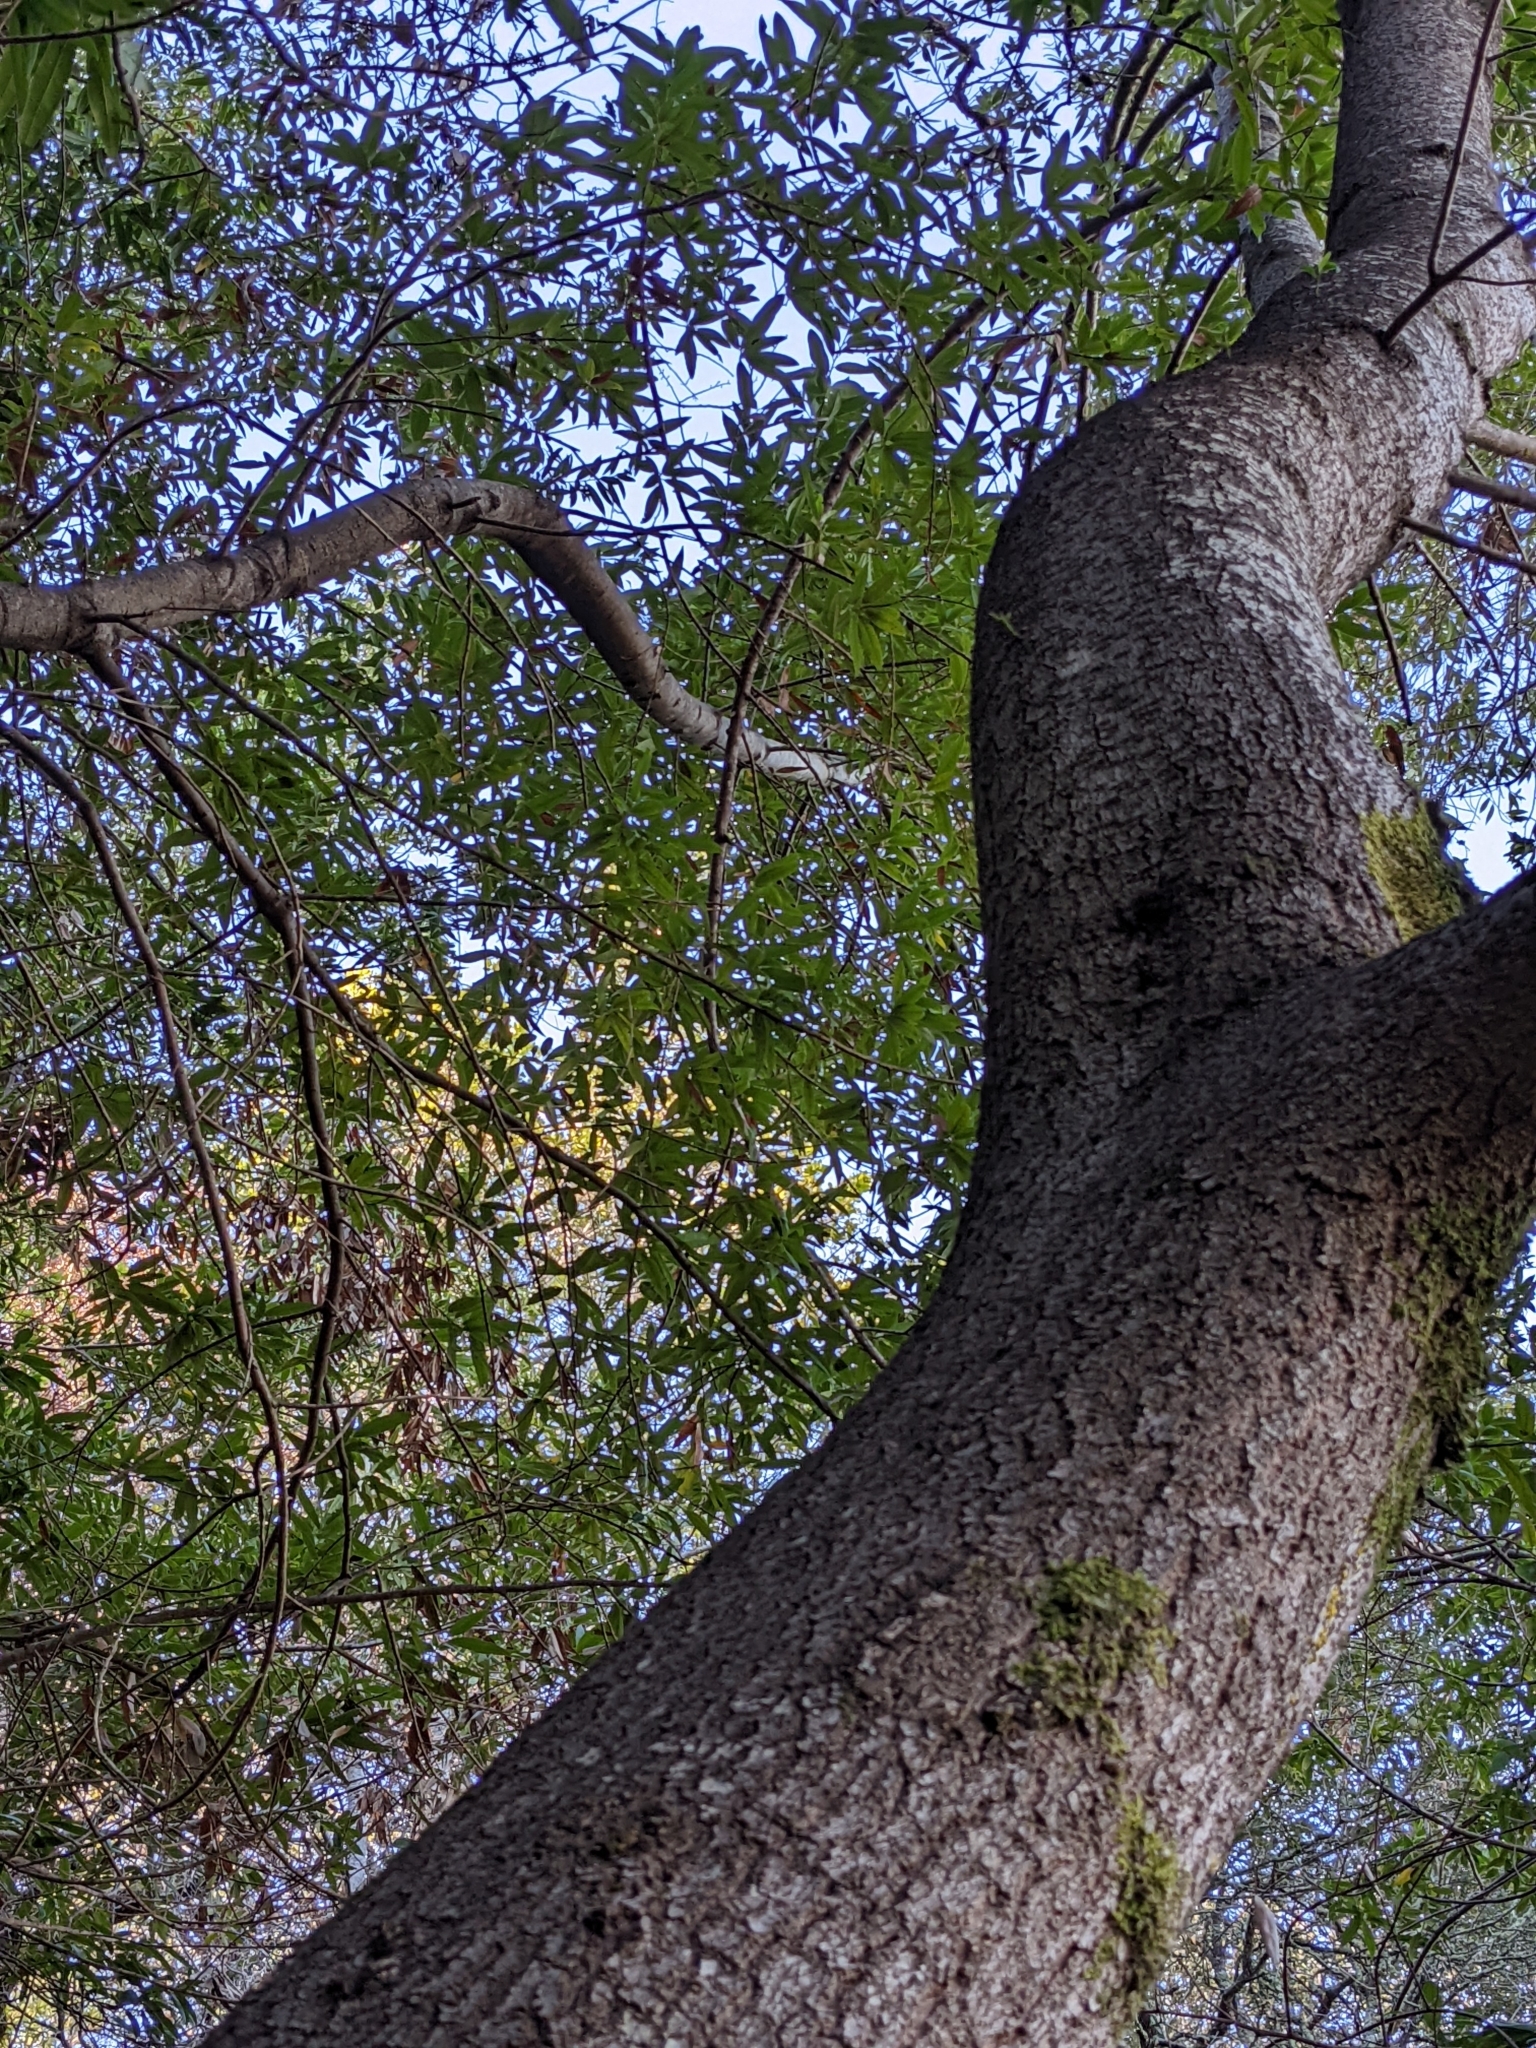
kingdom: Plantae
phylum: Tracheophyta
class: Magnoliopsida
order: Laurales
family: Lauraceae
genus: Umbellularia
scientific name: Umbellularia californica
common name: California bay
